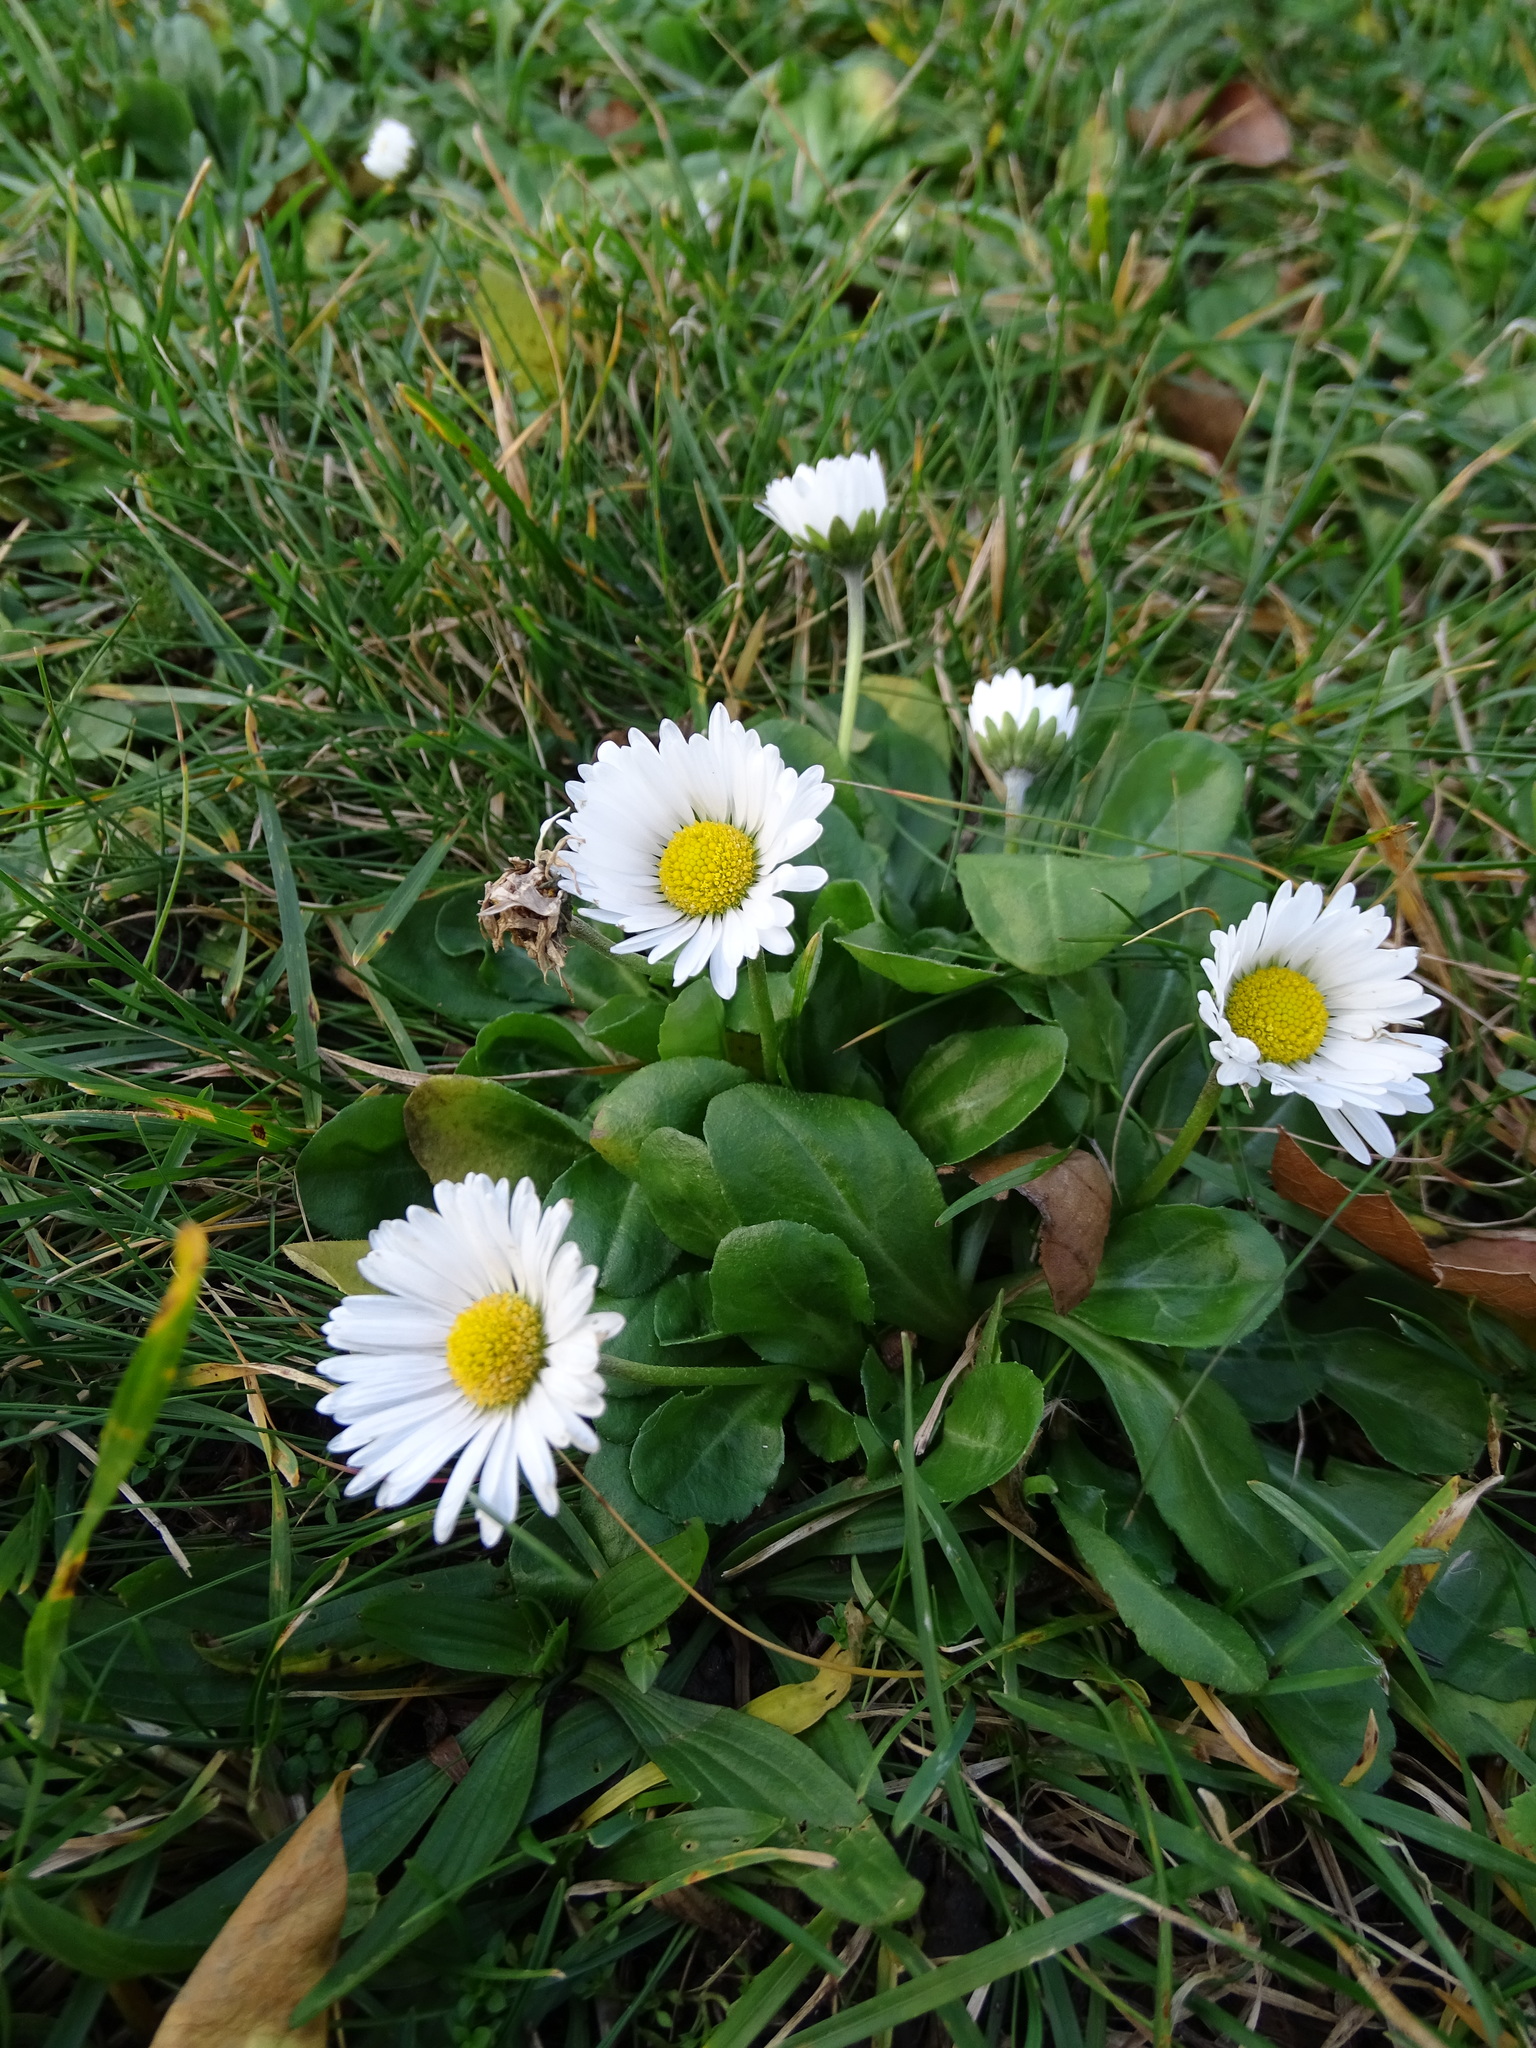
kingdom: Plantae
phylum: Tracheophyta
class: Magnoliopsida
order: Asterales
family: Asteraceae
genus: Bellis
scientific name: Bellis perennis
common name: Lawndaisy
